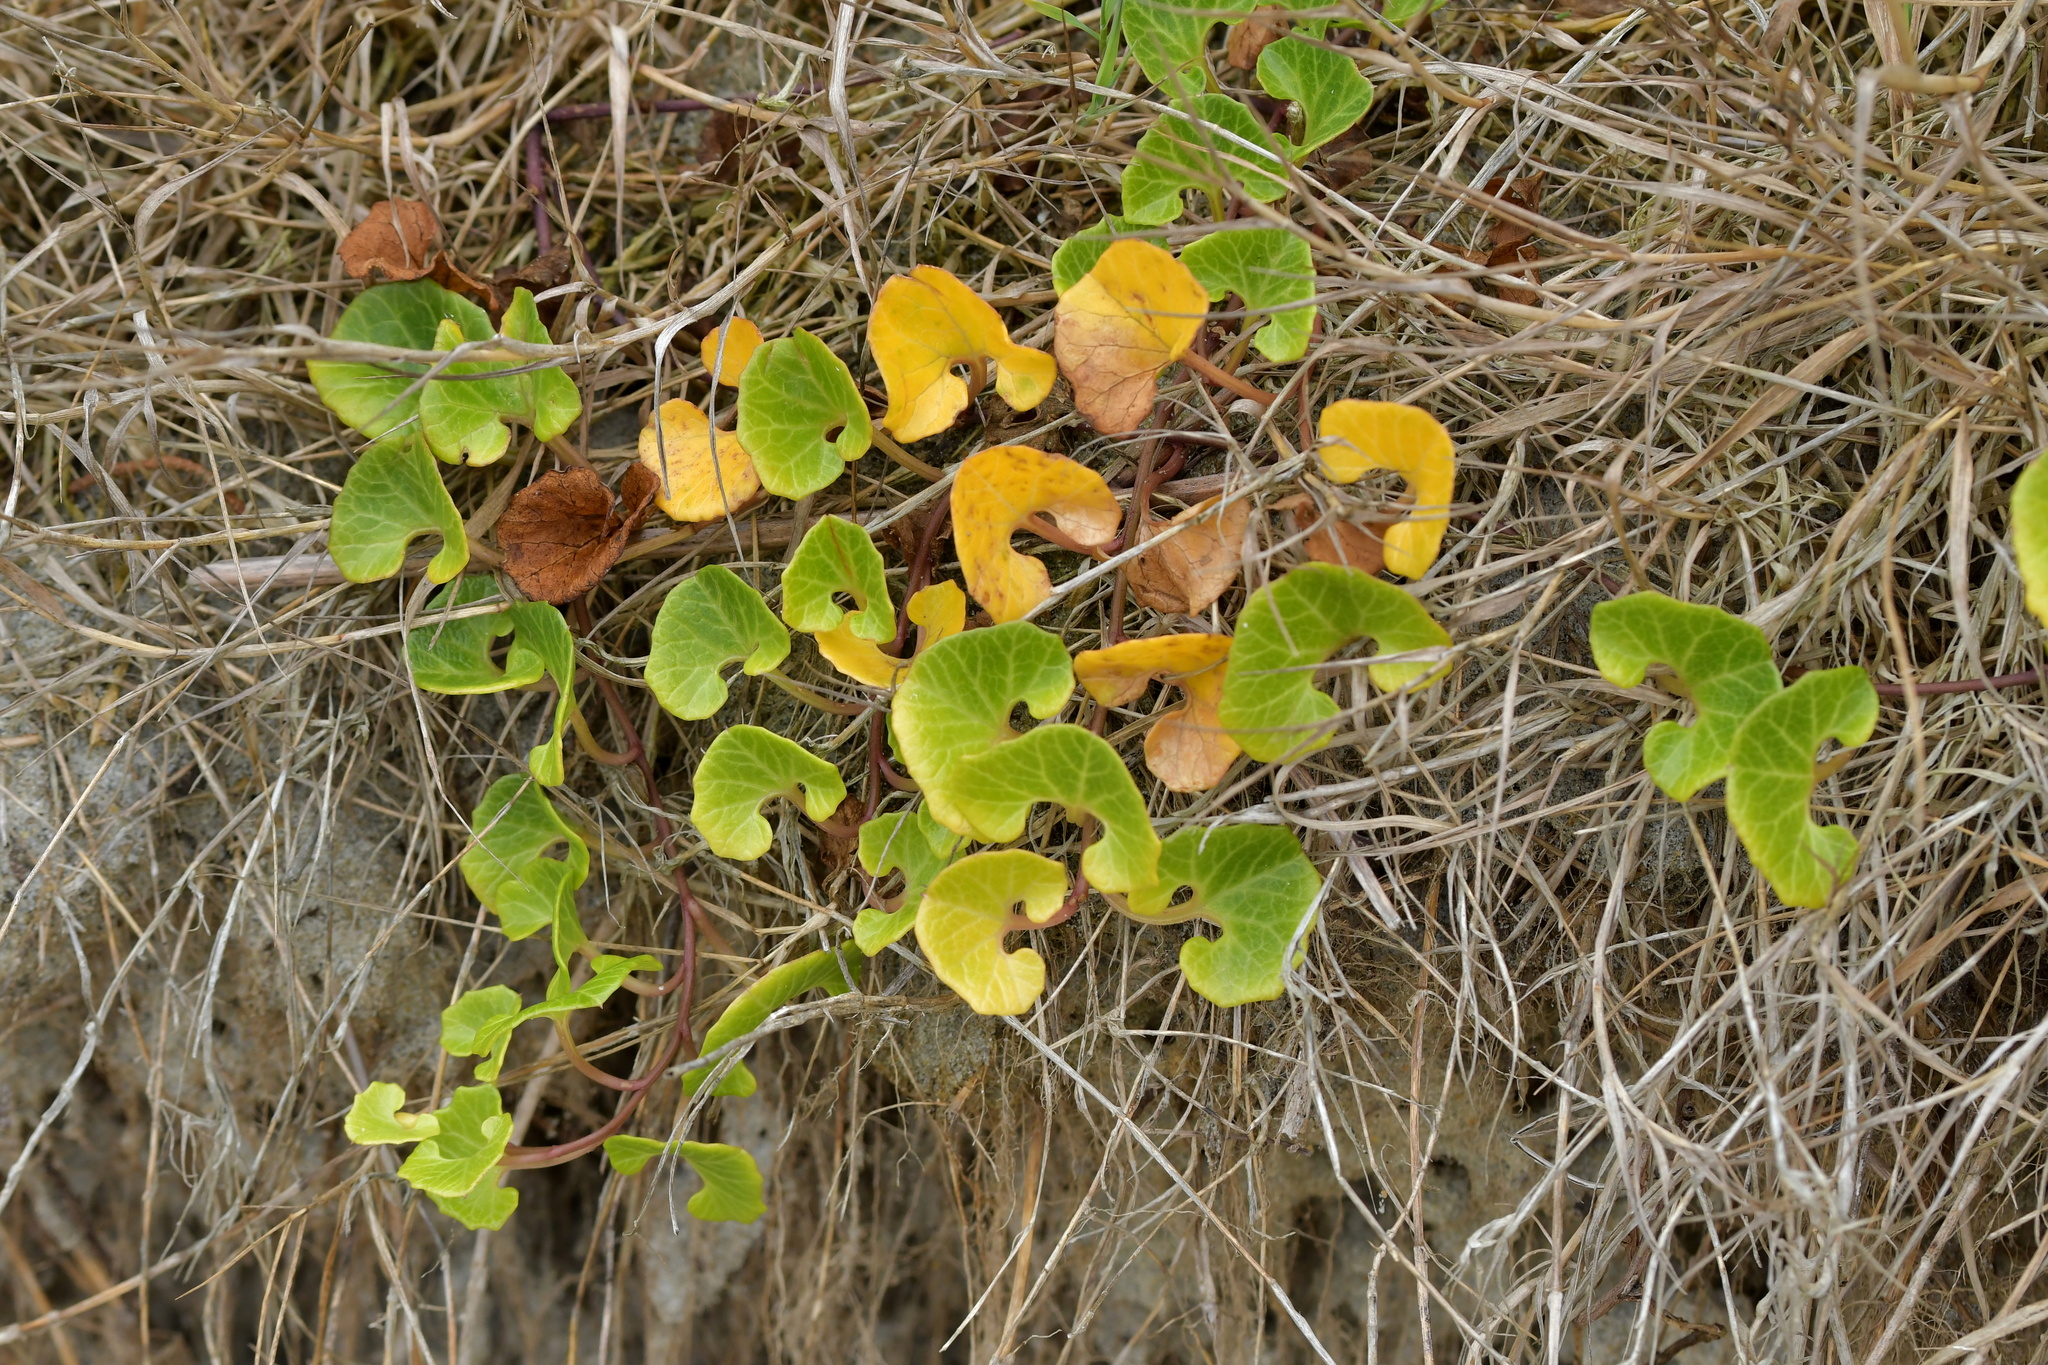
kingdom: Plantae
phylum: Tracheophyta
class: Magnoliopsida
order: Solanales
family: Convolvulaceae
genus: Calystegia
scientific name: Calystegia soldanella
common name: Sea bindweed
